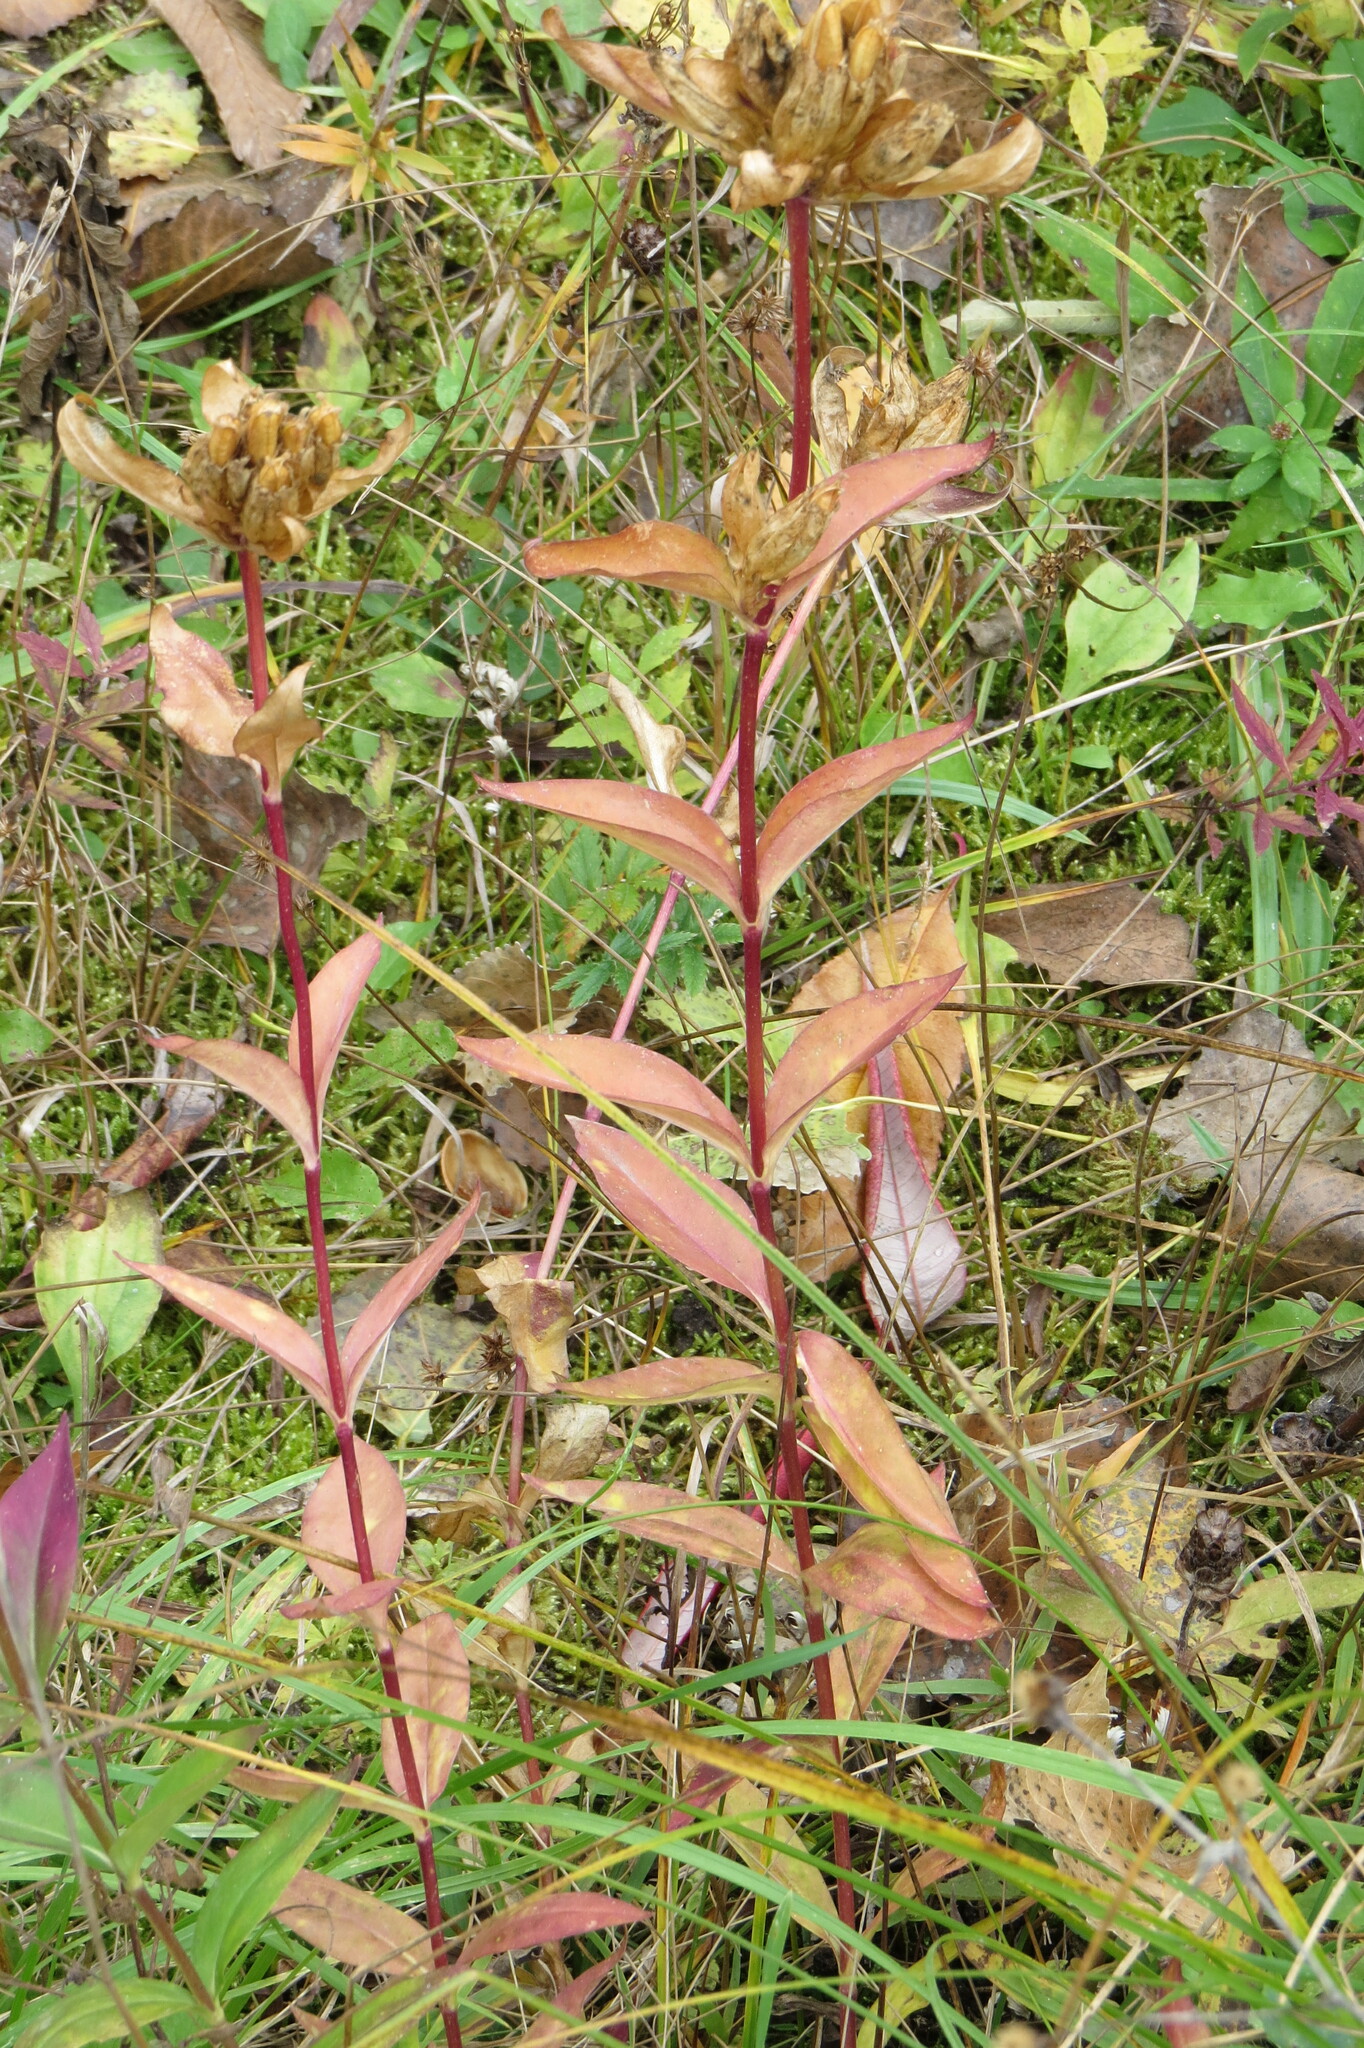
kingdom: Plantae
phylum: Tracheophyta
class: Magnoliopsida
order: Gentianales
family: Gentianaceae
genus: Gentiana
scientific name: Gentiana andrewsii
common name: Bottle gentian
